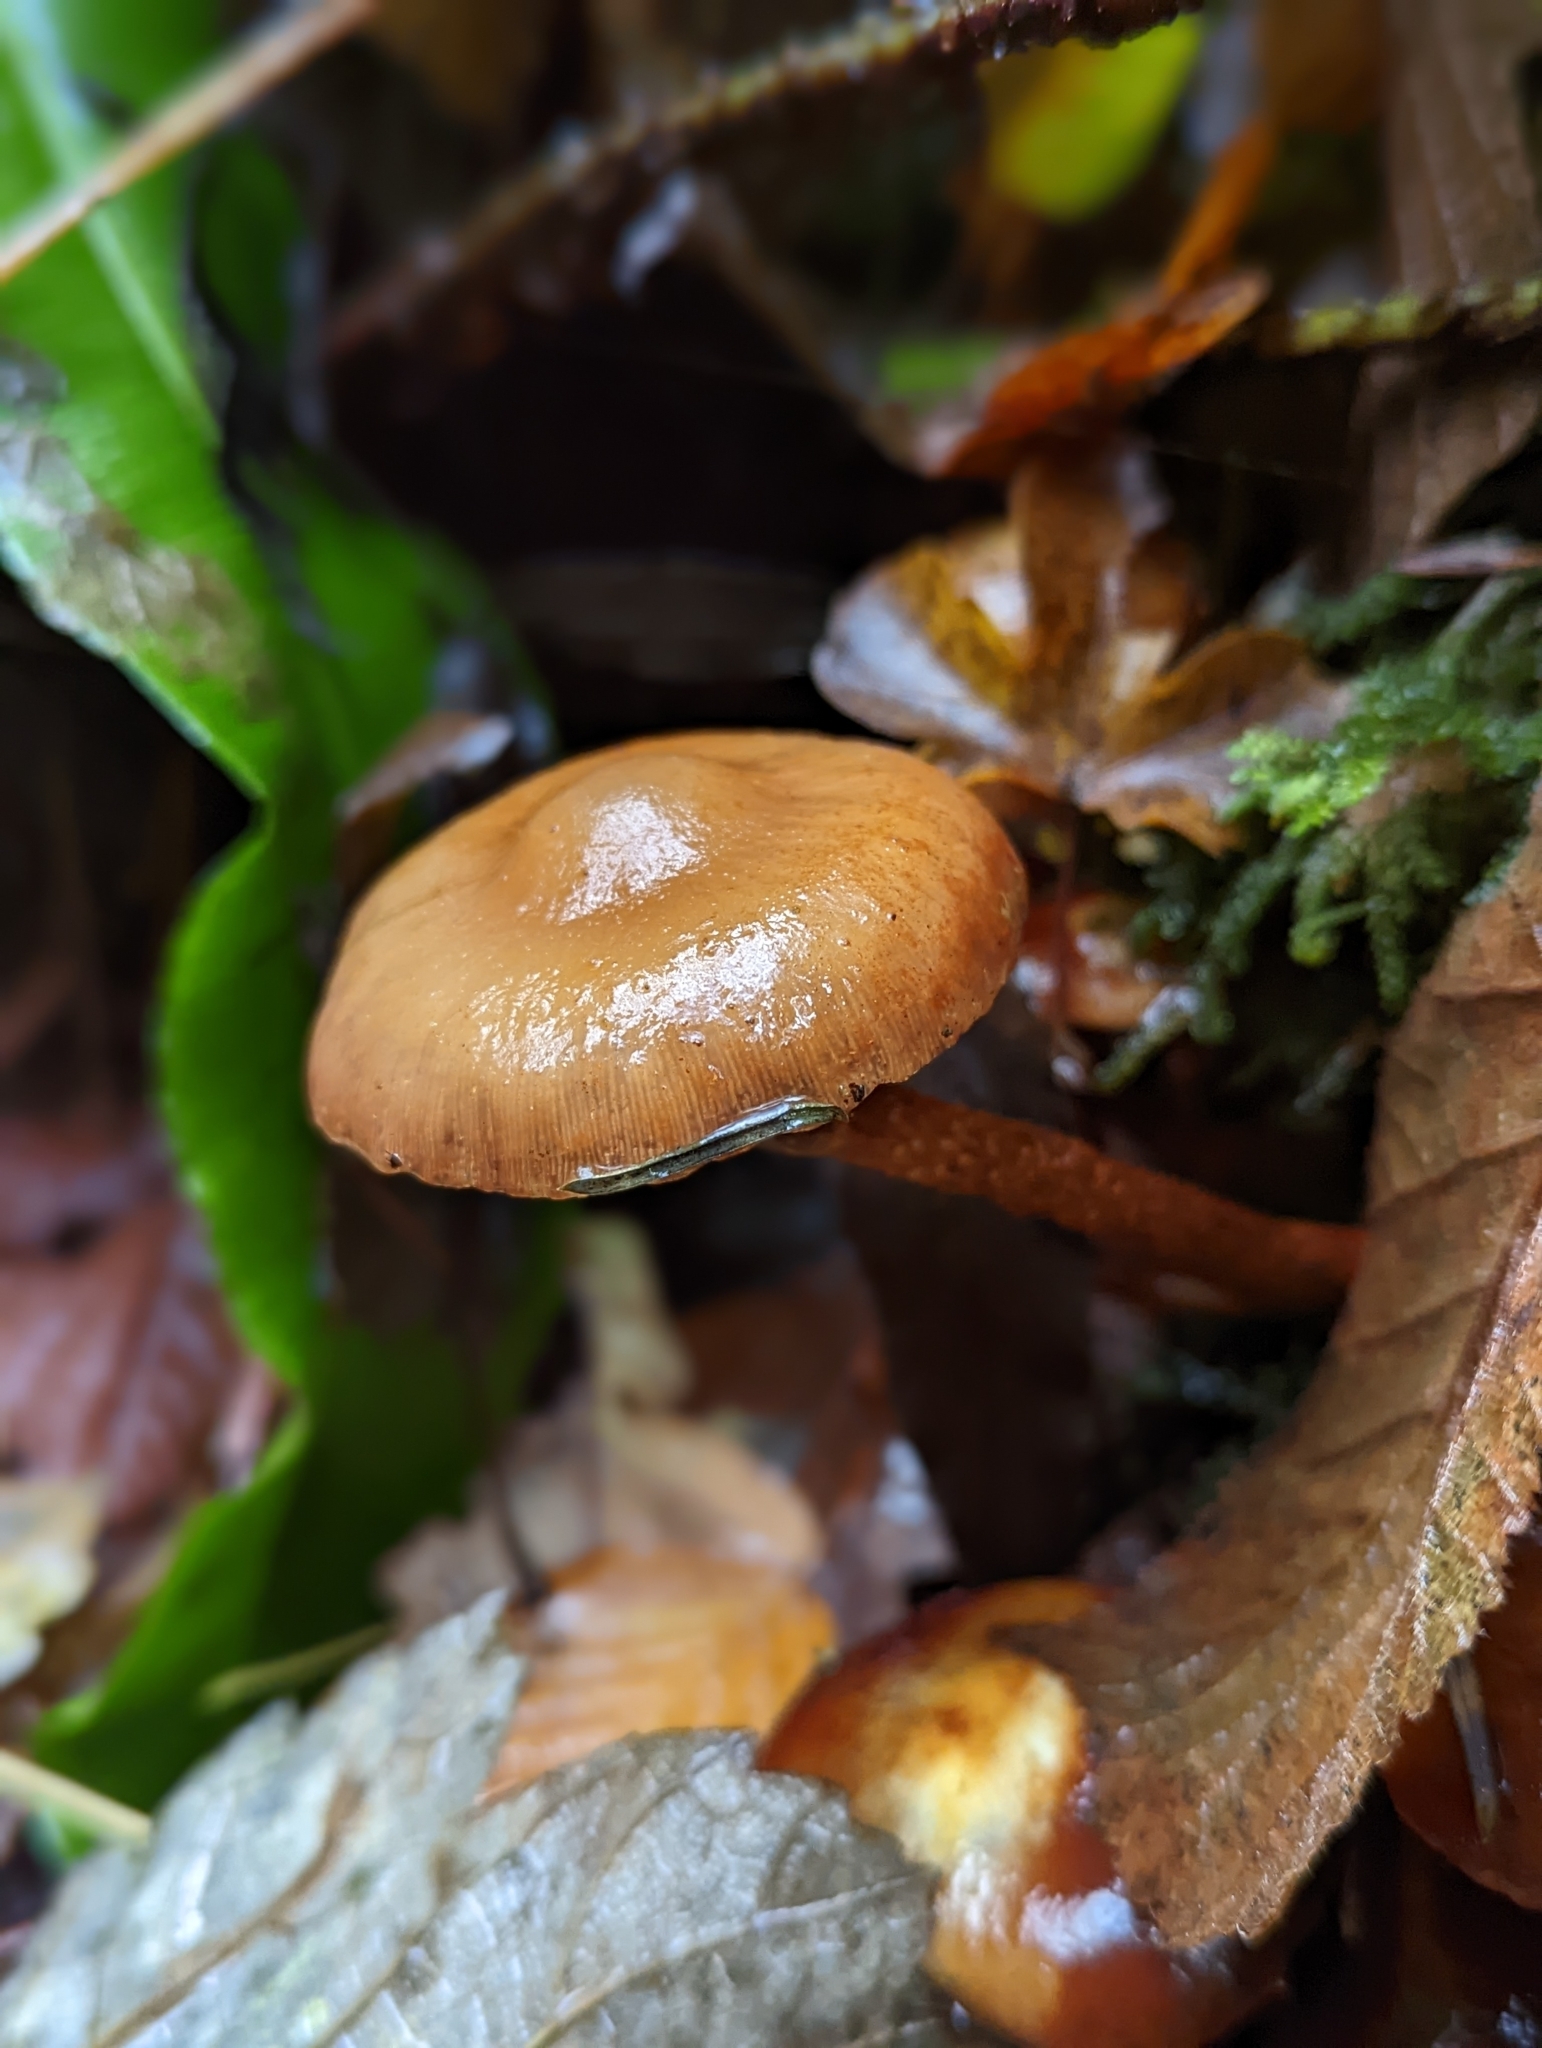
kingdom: Fungi
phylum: Basidiomycota
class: Agaricomycetes
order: Agaricales
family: Strophariaceae
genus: Kuehneromyces
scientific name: Kuehneromyces mutabilis
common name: Sheathed woodtuft
